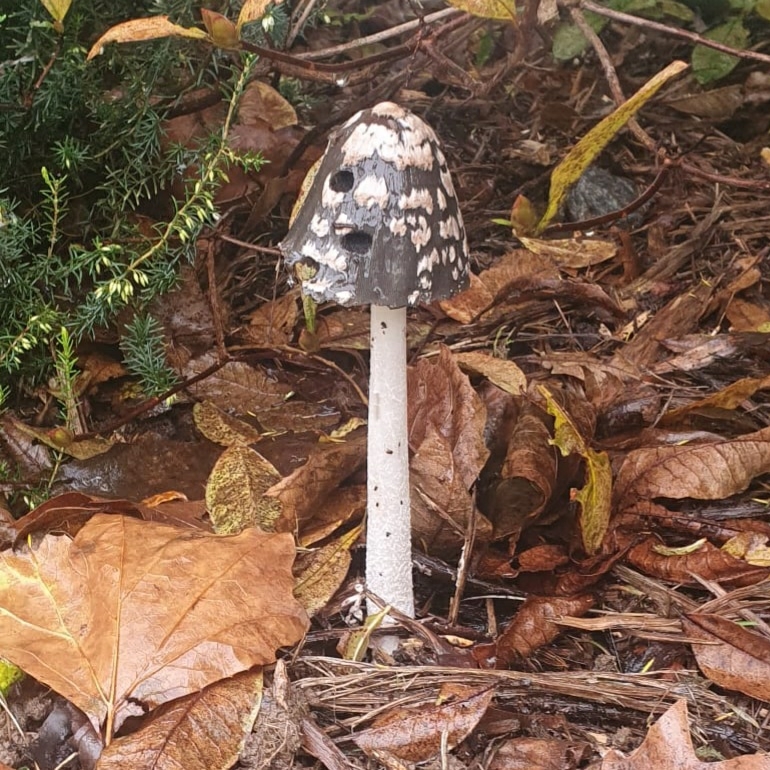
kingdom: Fungi
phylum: Basidiomycota
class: Agaricomycetes
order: Agaricales
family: Psathyrellaceae
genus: Coprinopsis
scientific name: Coprinopsis picacea
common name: Magpie inkcap
